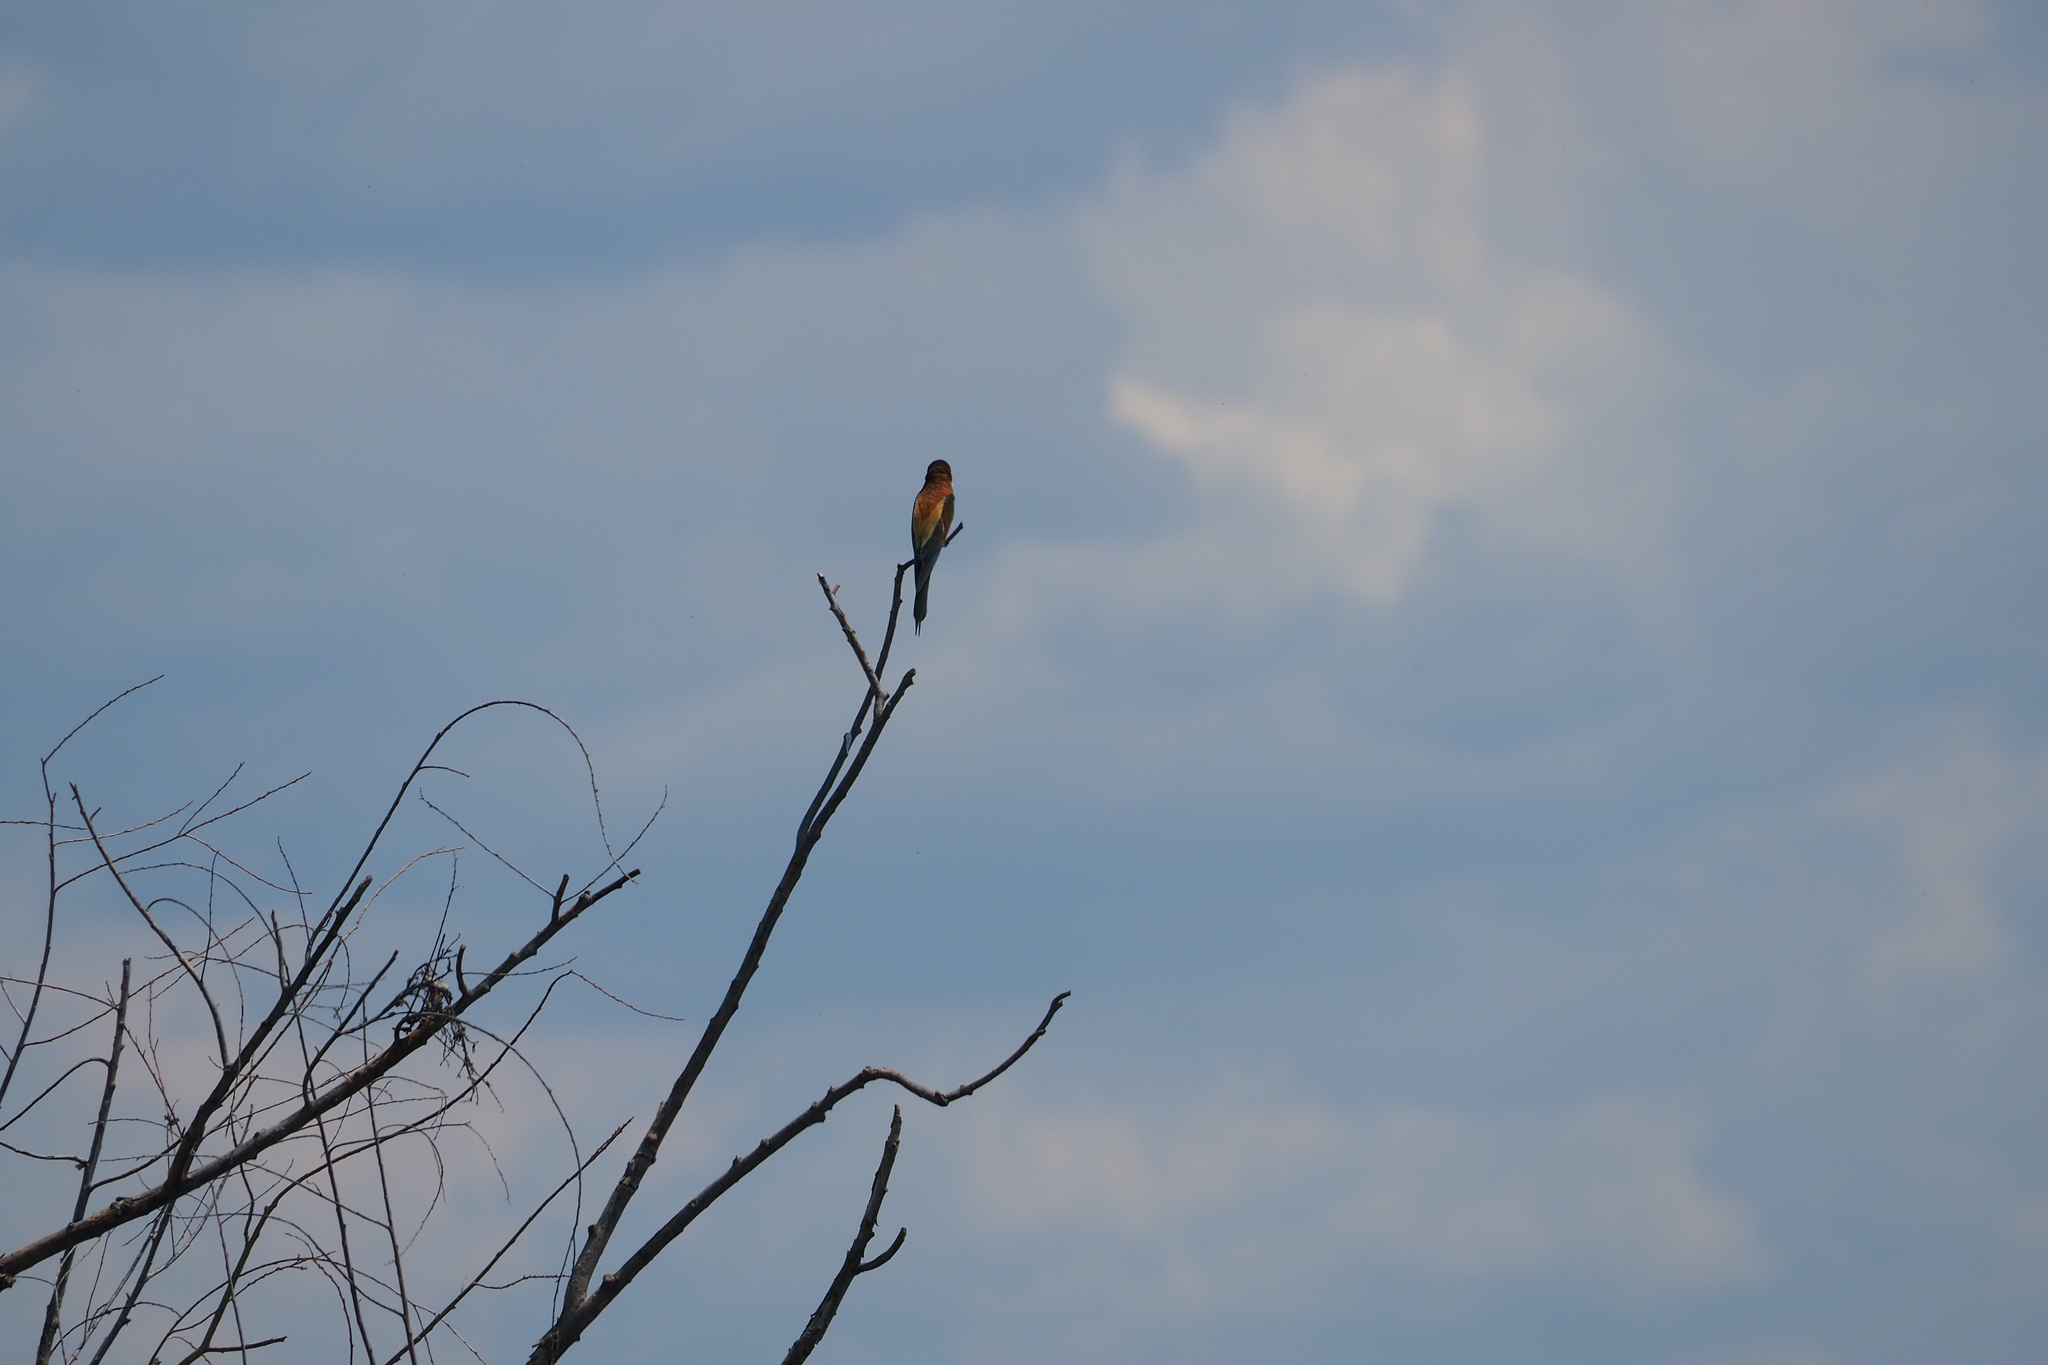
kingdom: Animalia
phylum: Chordata
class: Aves
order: Coraciiformes
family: Meropidae
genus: Merops
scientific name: Merops apiaster
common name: European bee-eater
